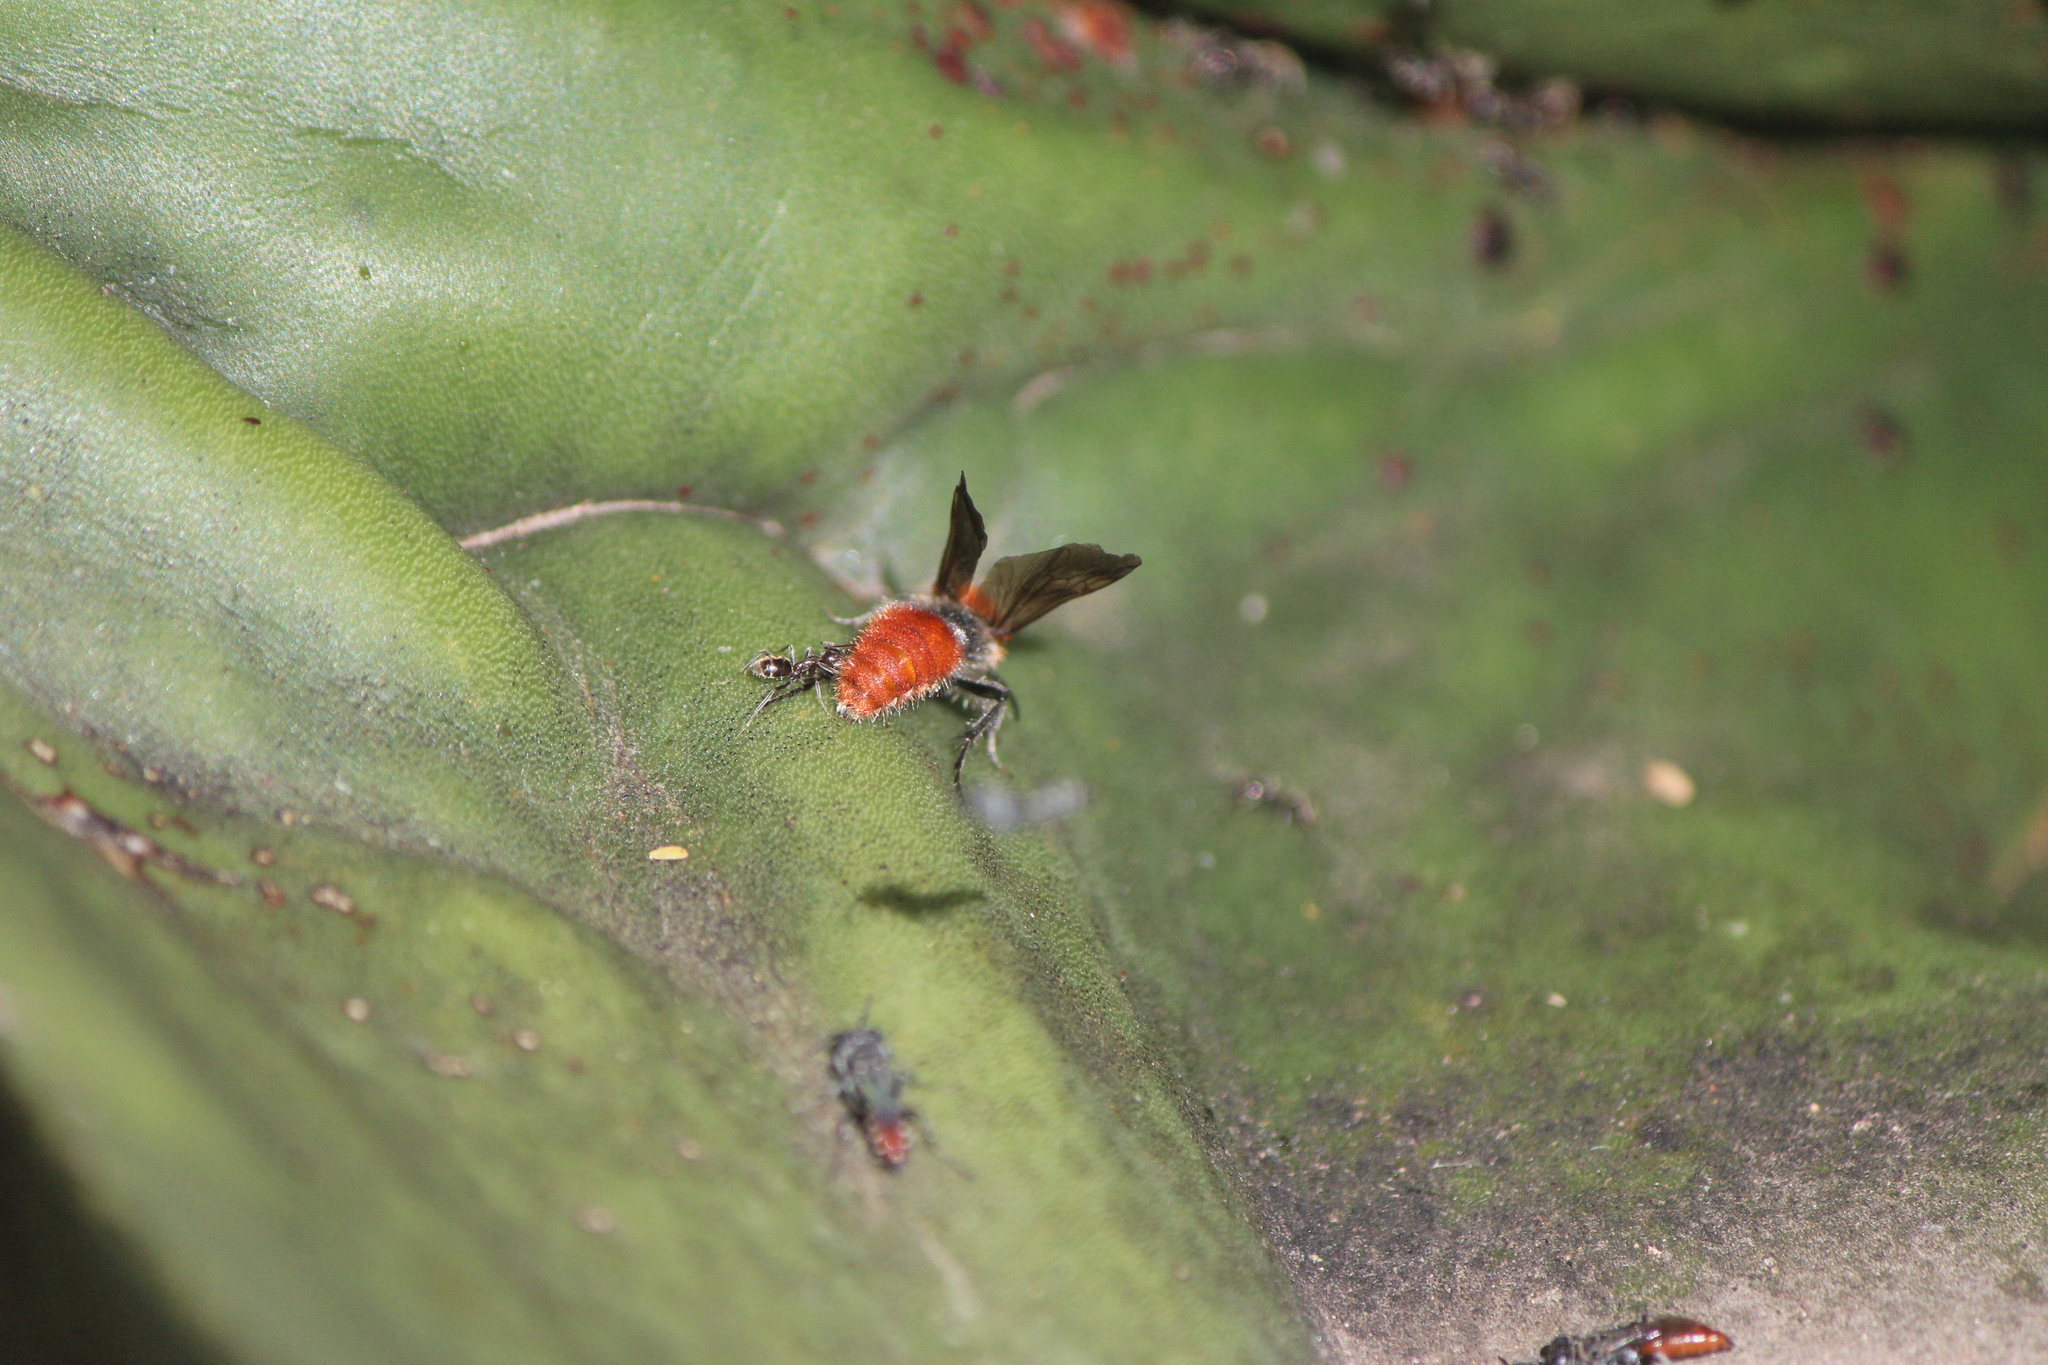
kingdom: Animalia
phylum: Arthropoda
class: Insecta
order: Hymenoptera
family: Mutillidae
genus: Dasymutilla
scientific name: Dasymutilla
